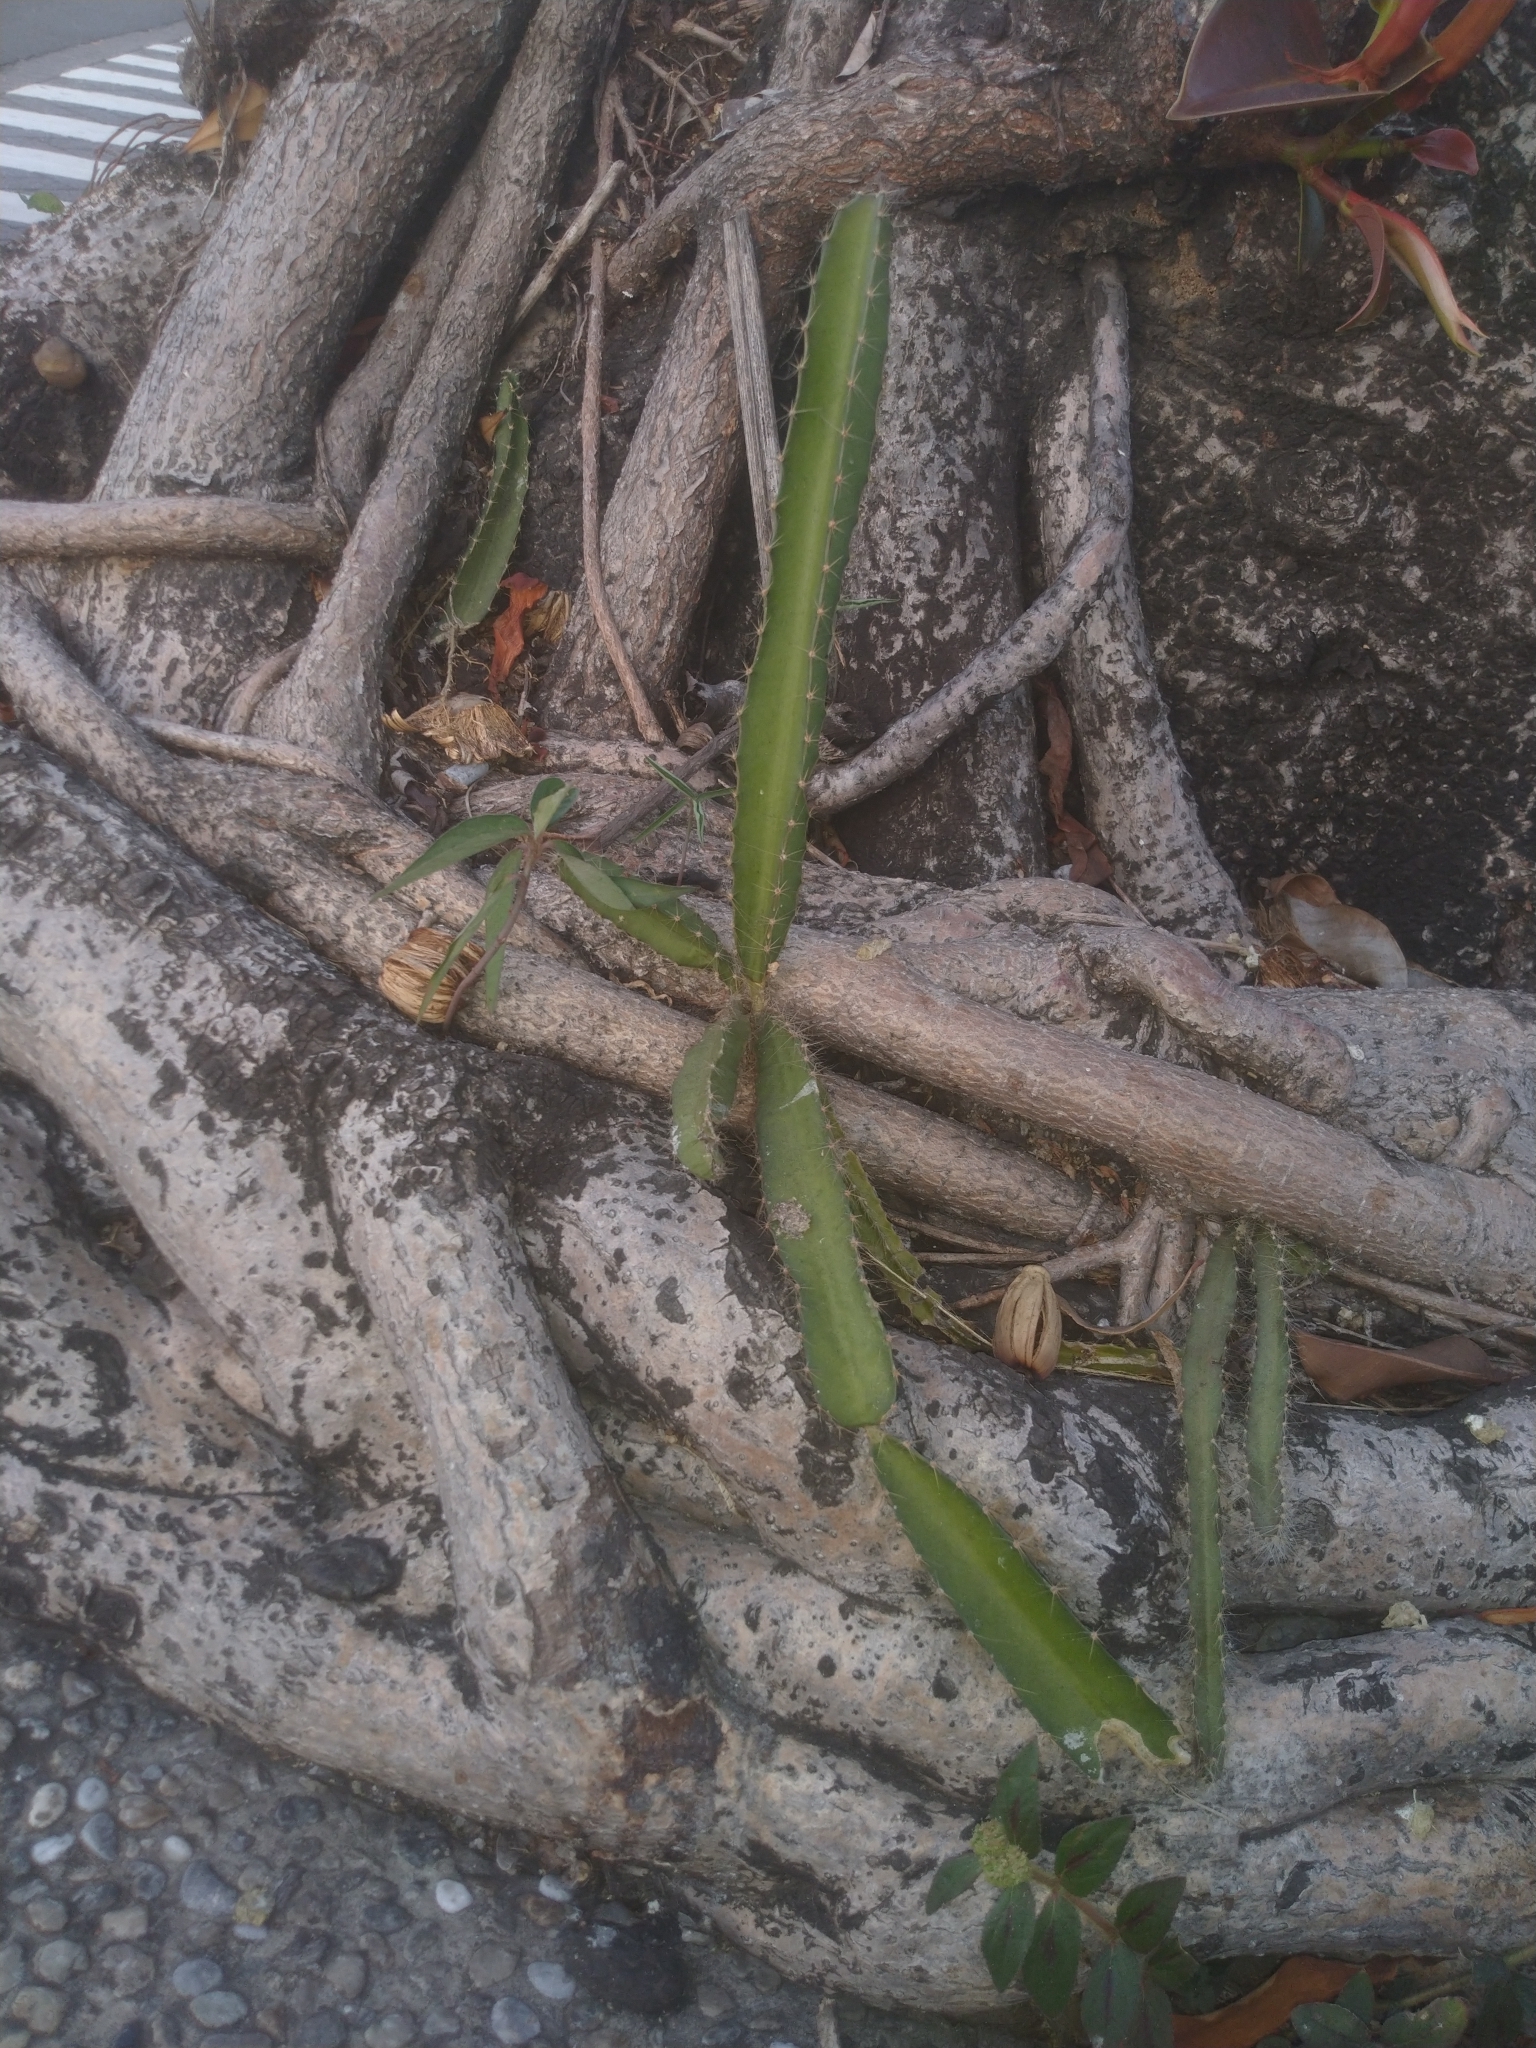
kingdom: Plantae
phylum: Tracheophyta
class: Magnoliopsida
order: Caryophyllales
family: Cactaceae
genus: Selenicereus
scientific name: Selenicereus undatus
